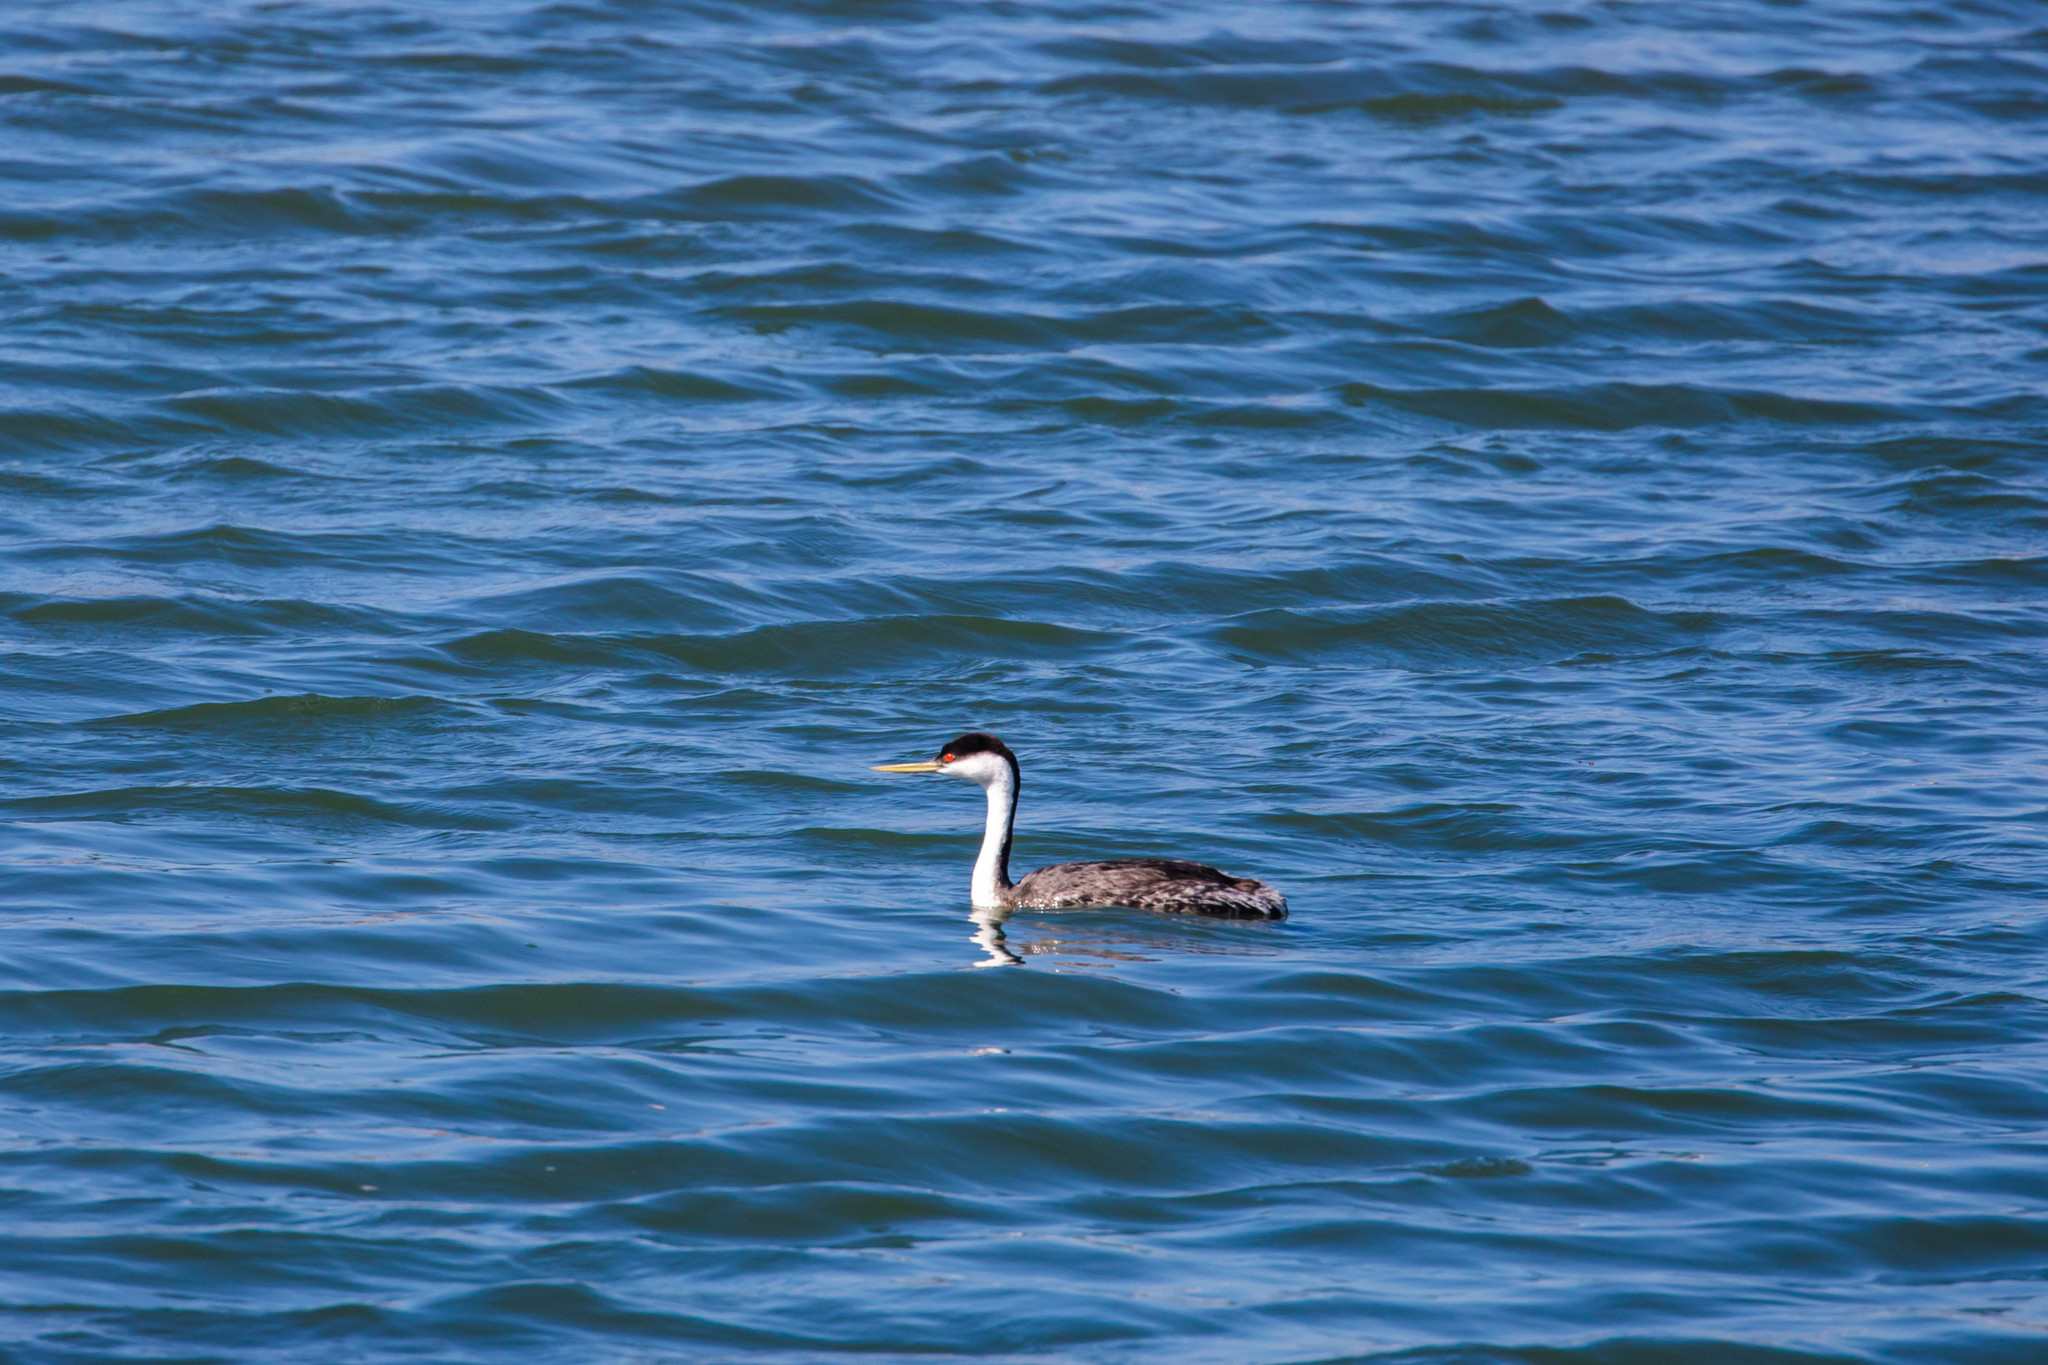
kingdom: Animalia
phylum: Chordata
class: Aves
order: Podicipediformes
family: Podicipedidae
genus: Aechmophorus
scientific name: Aechmophorus occidentalis
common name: Western grebe
